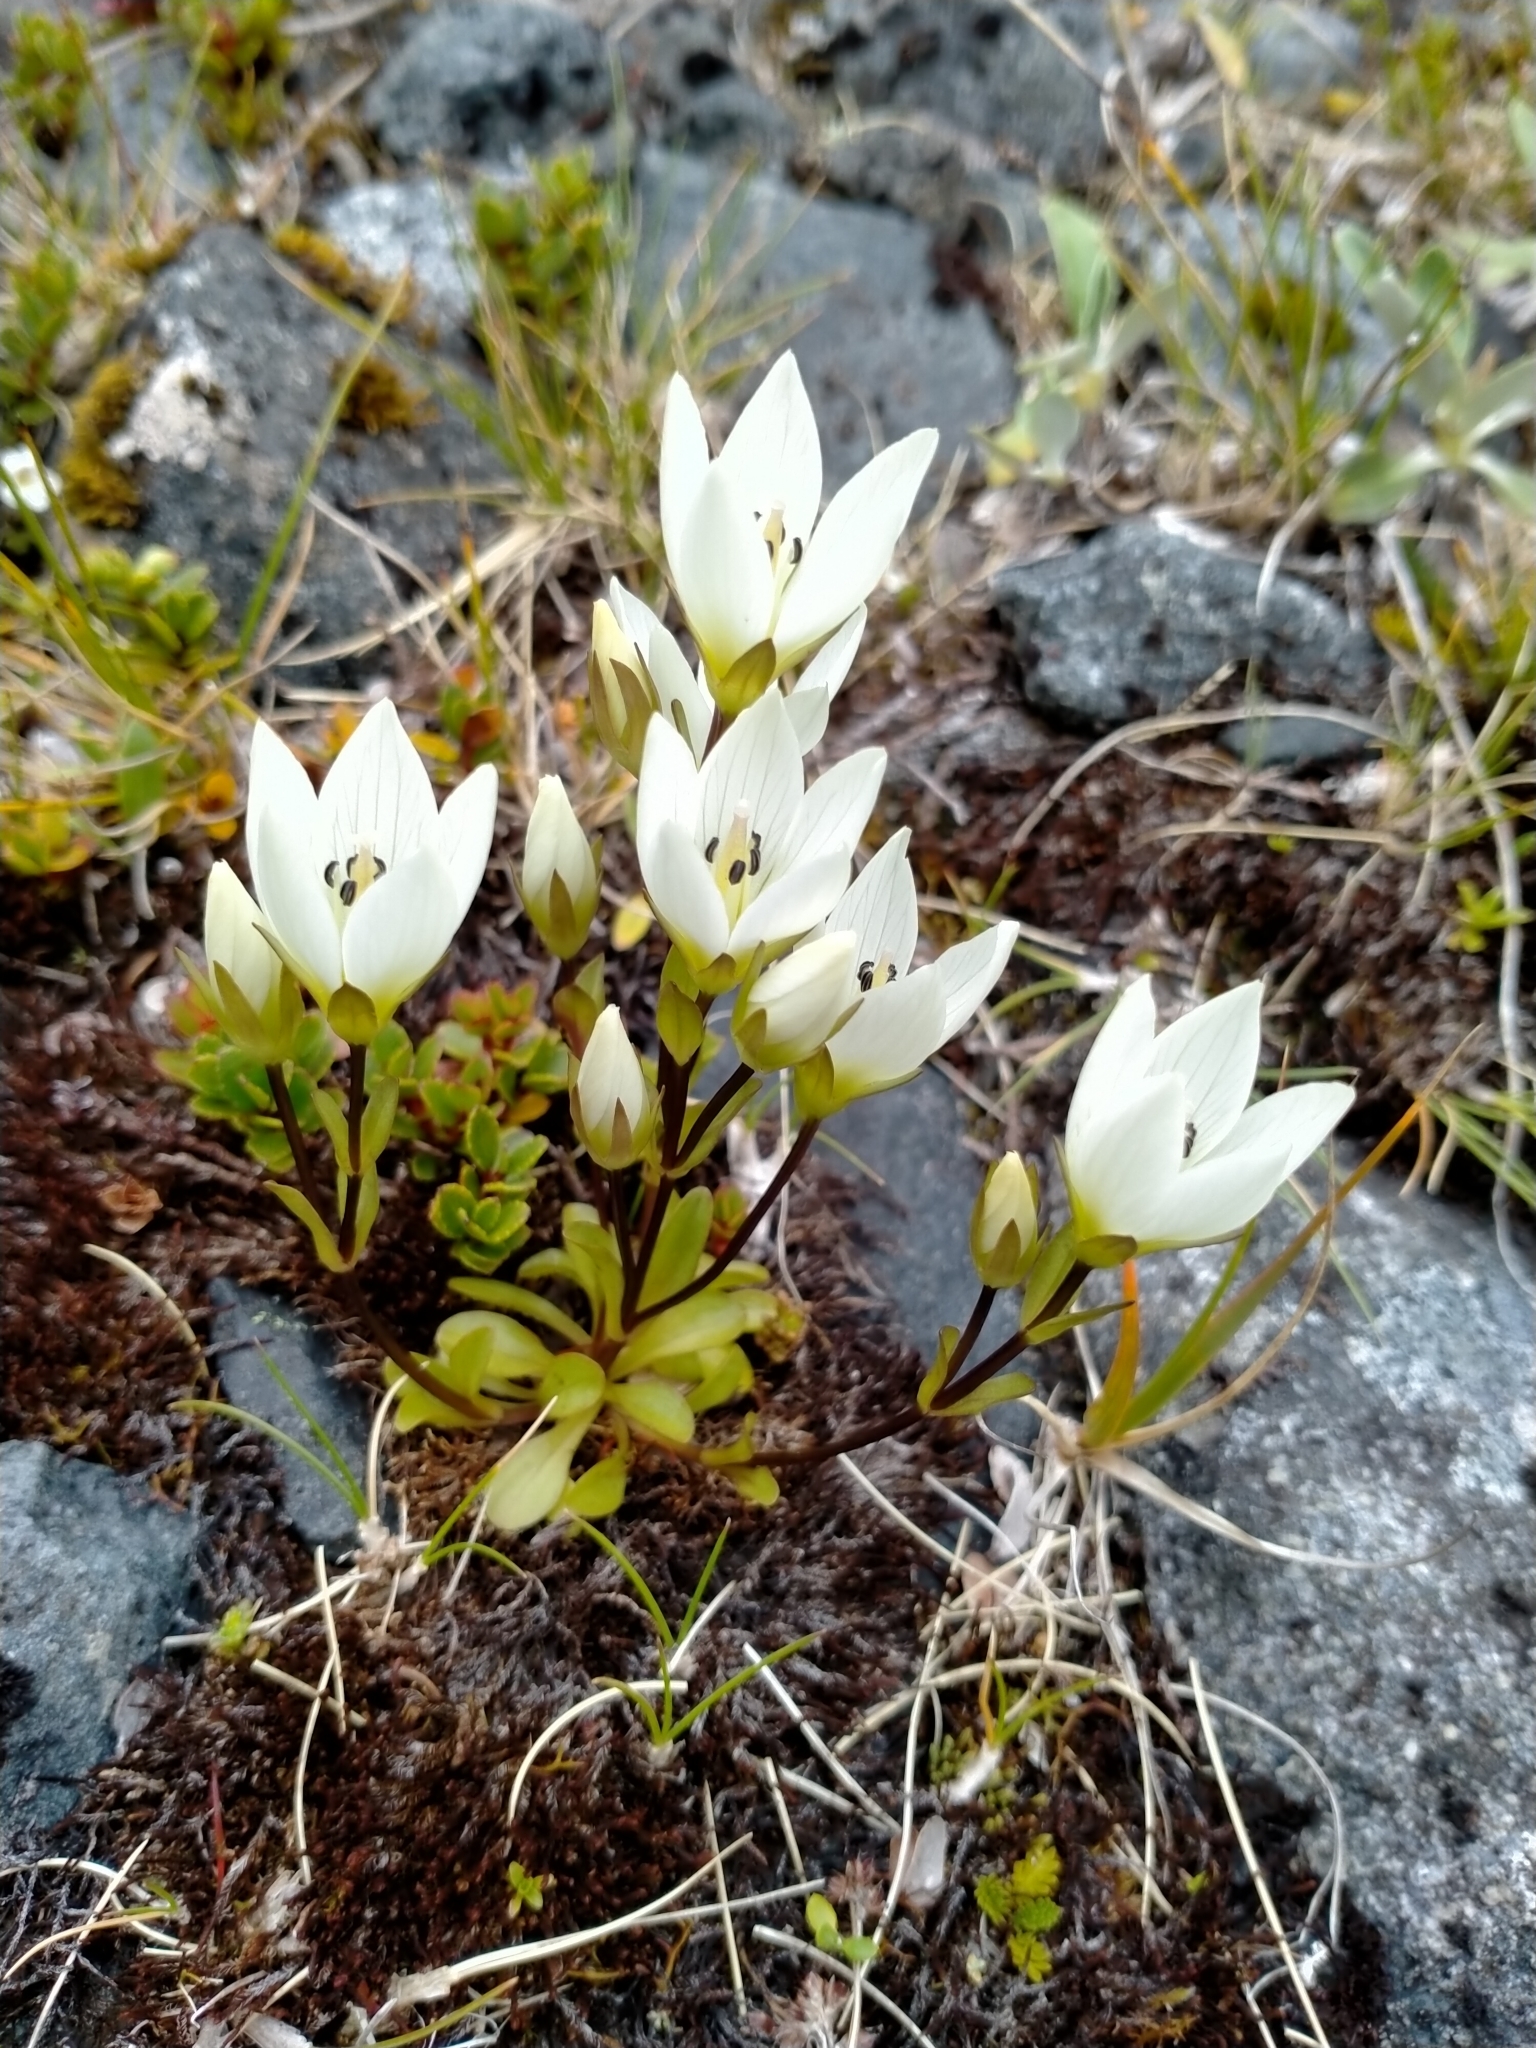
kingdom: Plantae
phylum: Tracheophyta
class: Magnoliopsida
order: Gentianales
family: Gentianaceae
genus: Gentianella
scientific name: Gentianella montana
